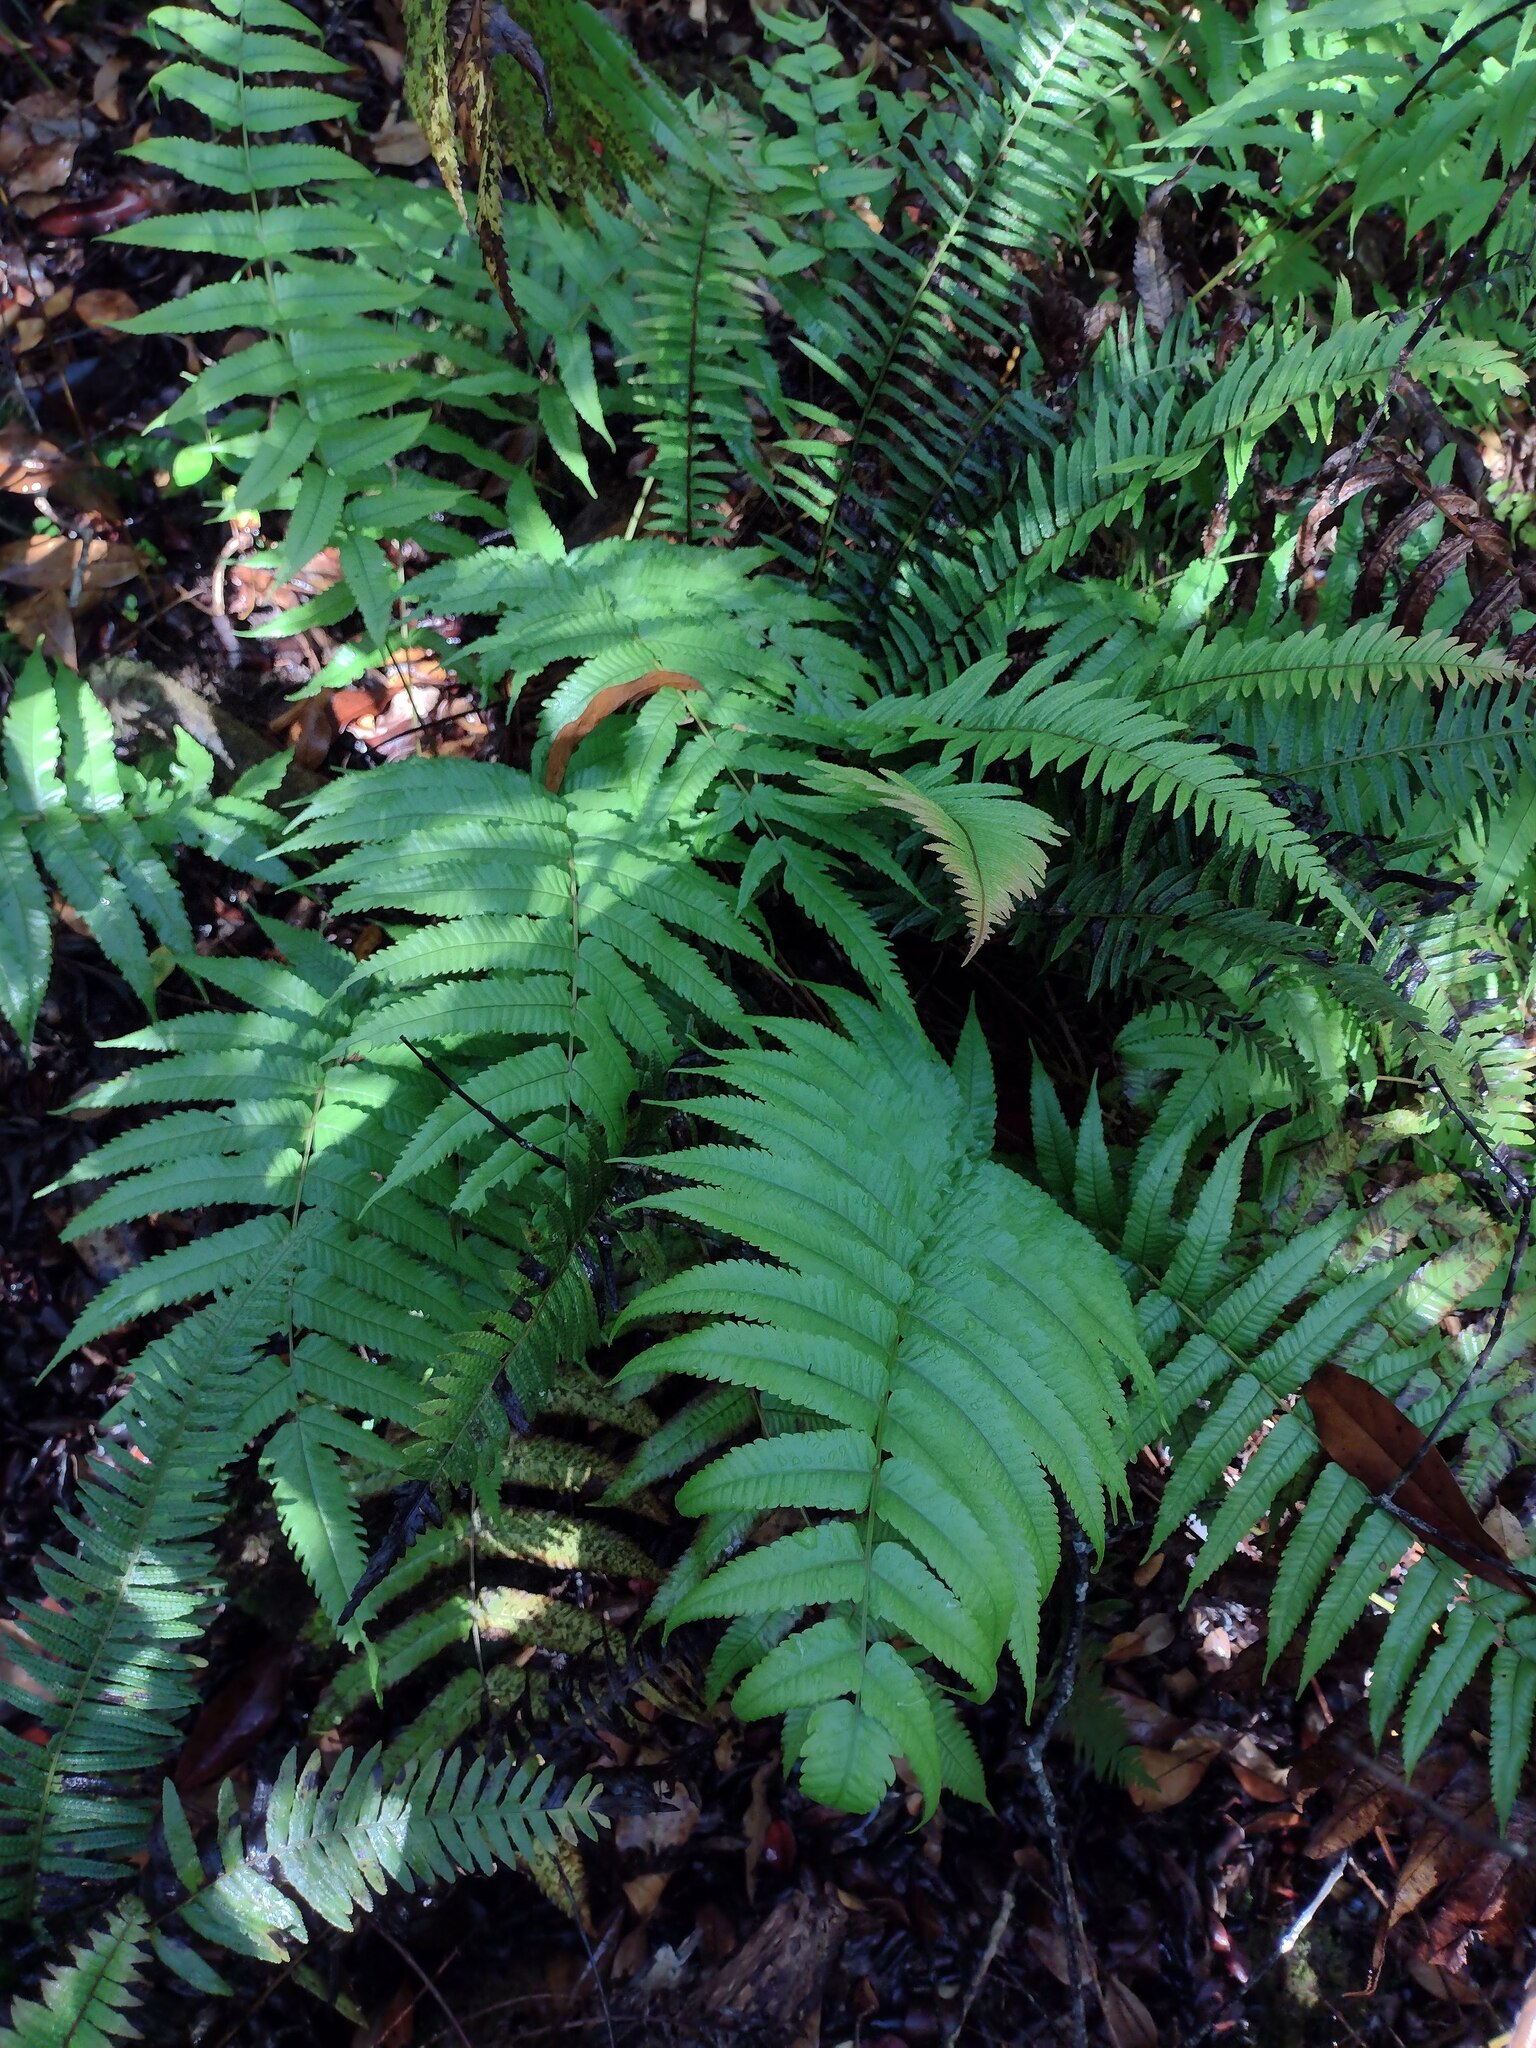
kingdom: Plantae
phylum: Tracheophyta
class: Polypodiopsida
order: Polypodiales
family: Thelypteridaceae
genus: Menisciopsis
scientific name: Menisciopsis cyatheoides
